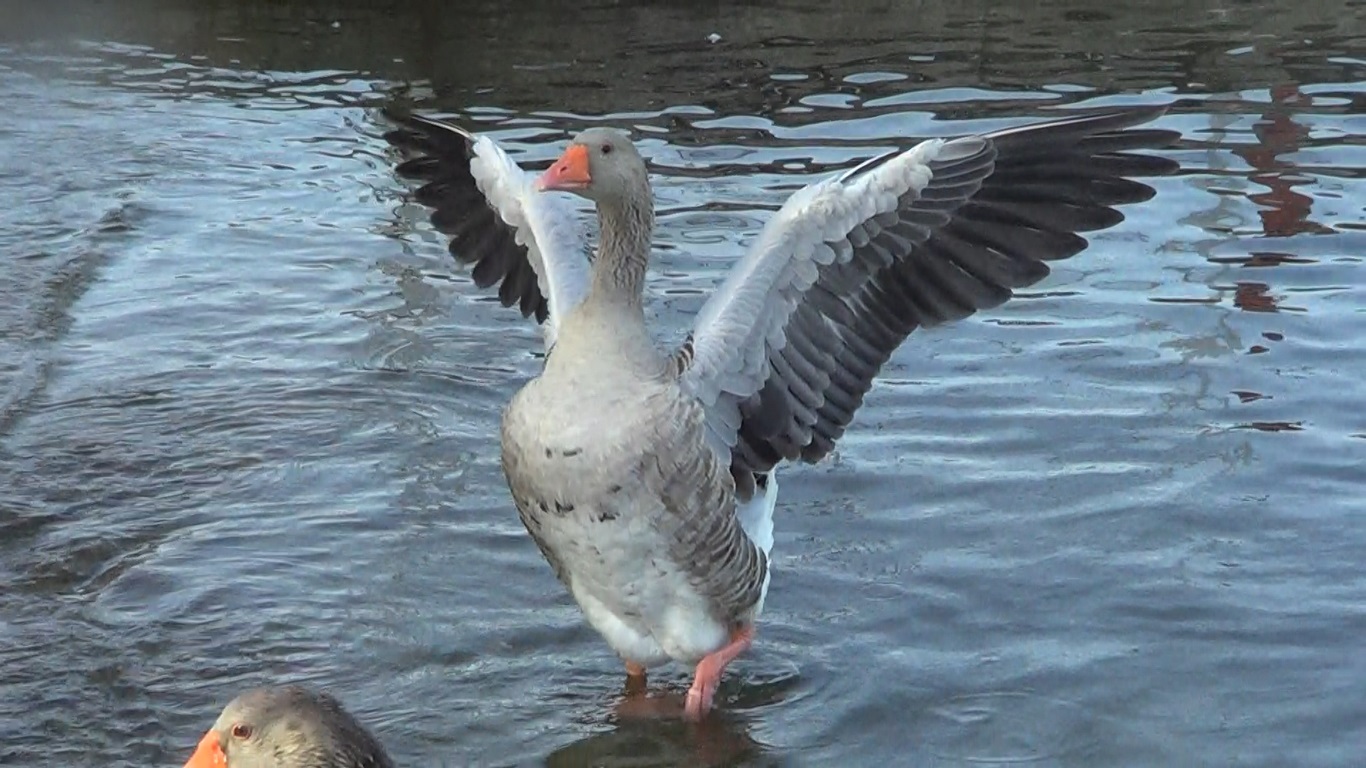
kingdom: Animalia
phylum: Chordata
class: Aves
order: Anseriformes
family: Anatidae
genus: Anser
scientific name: Anser anser
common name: Greylag goose
